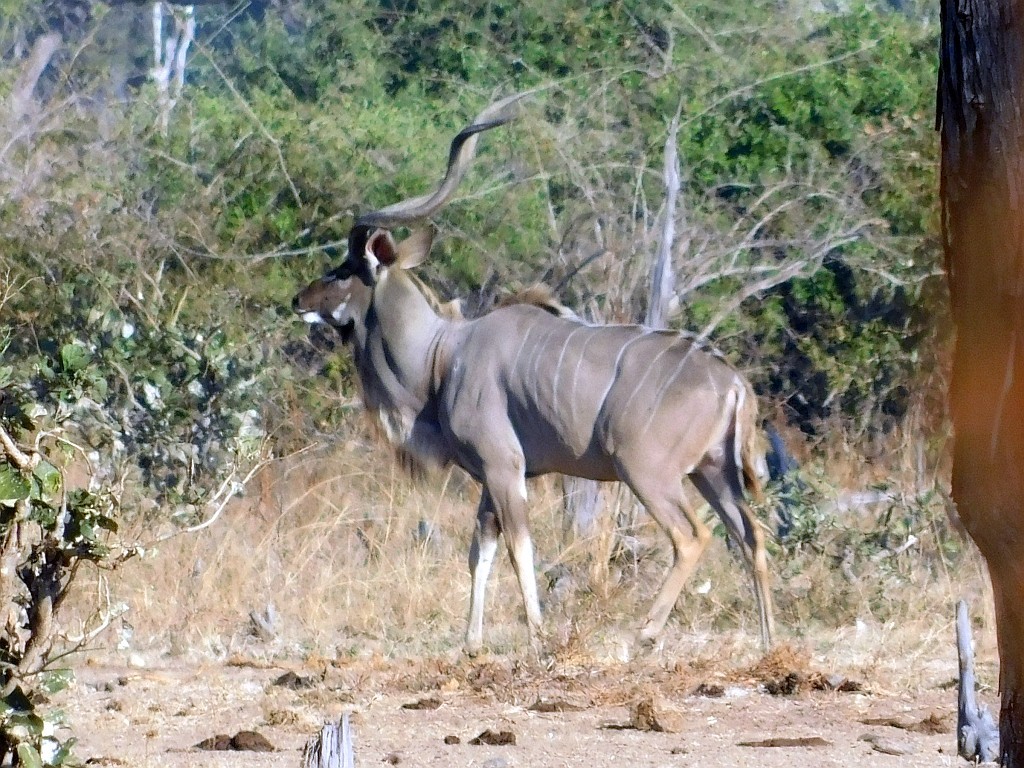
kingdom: Animalia
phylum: Chordata
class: Mammalia
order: Artiodactyla
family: Bovidae
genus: Tragelaphus
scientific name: Tragelaphus strepsiceros
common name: Greater kudu
